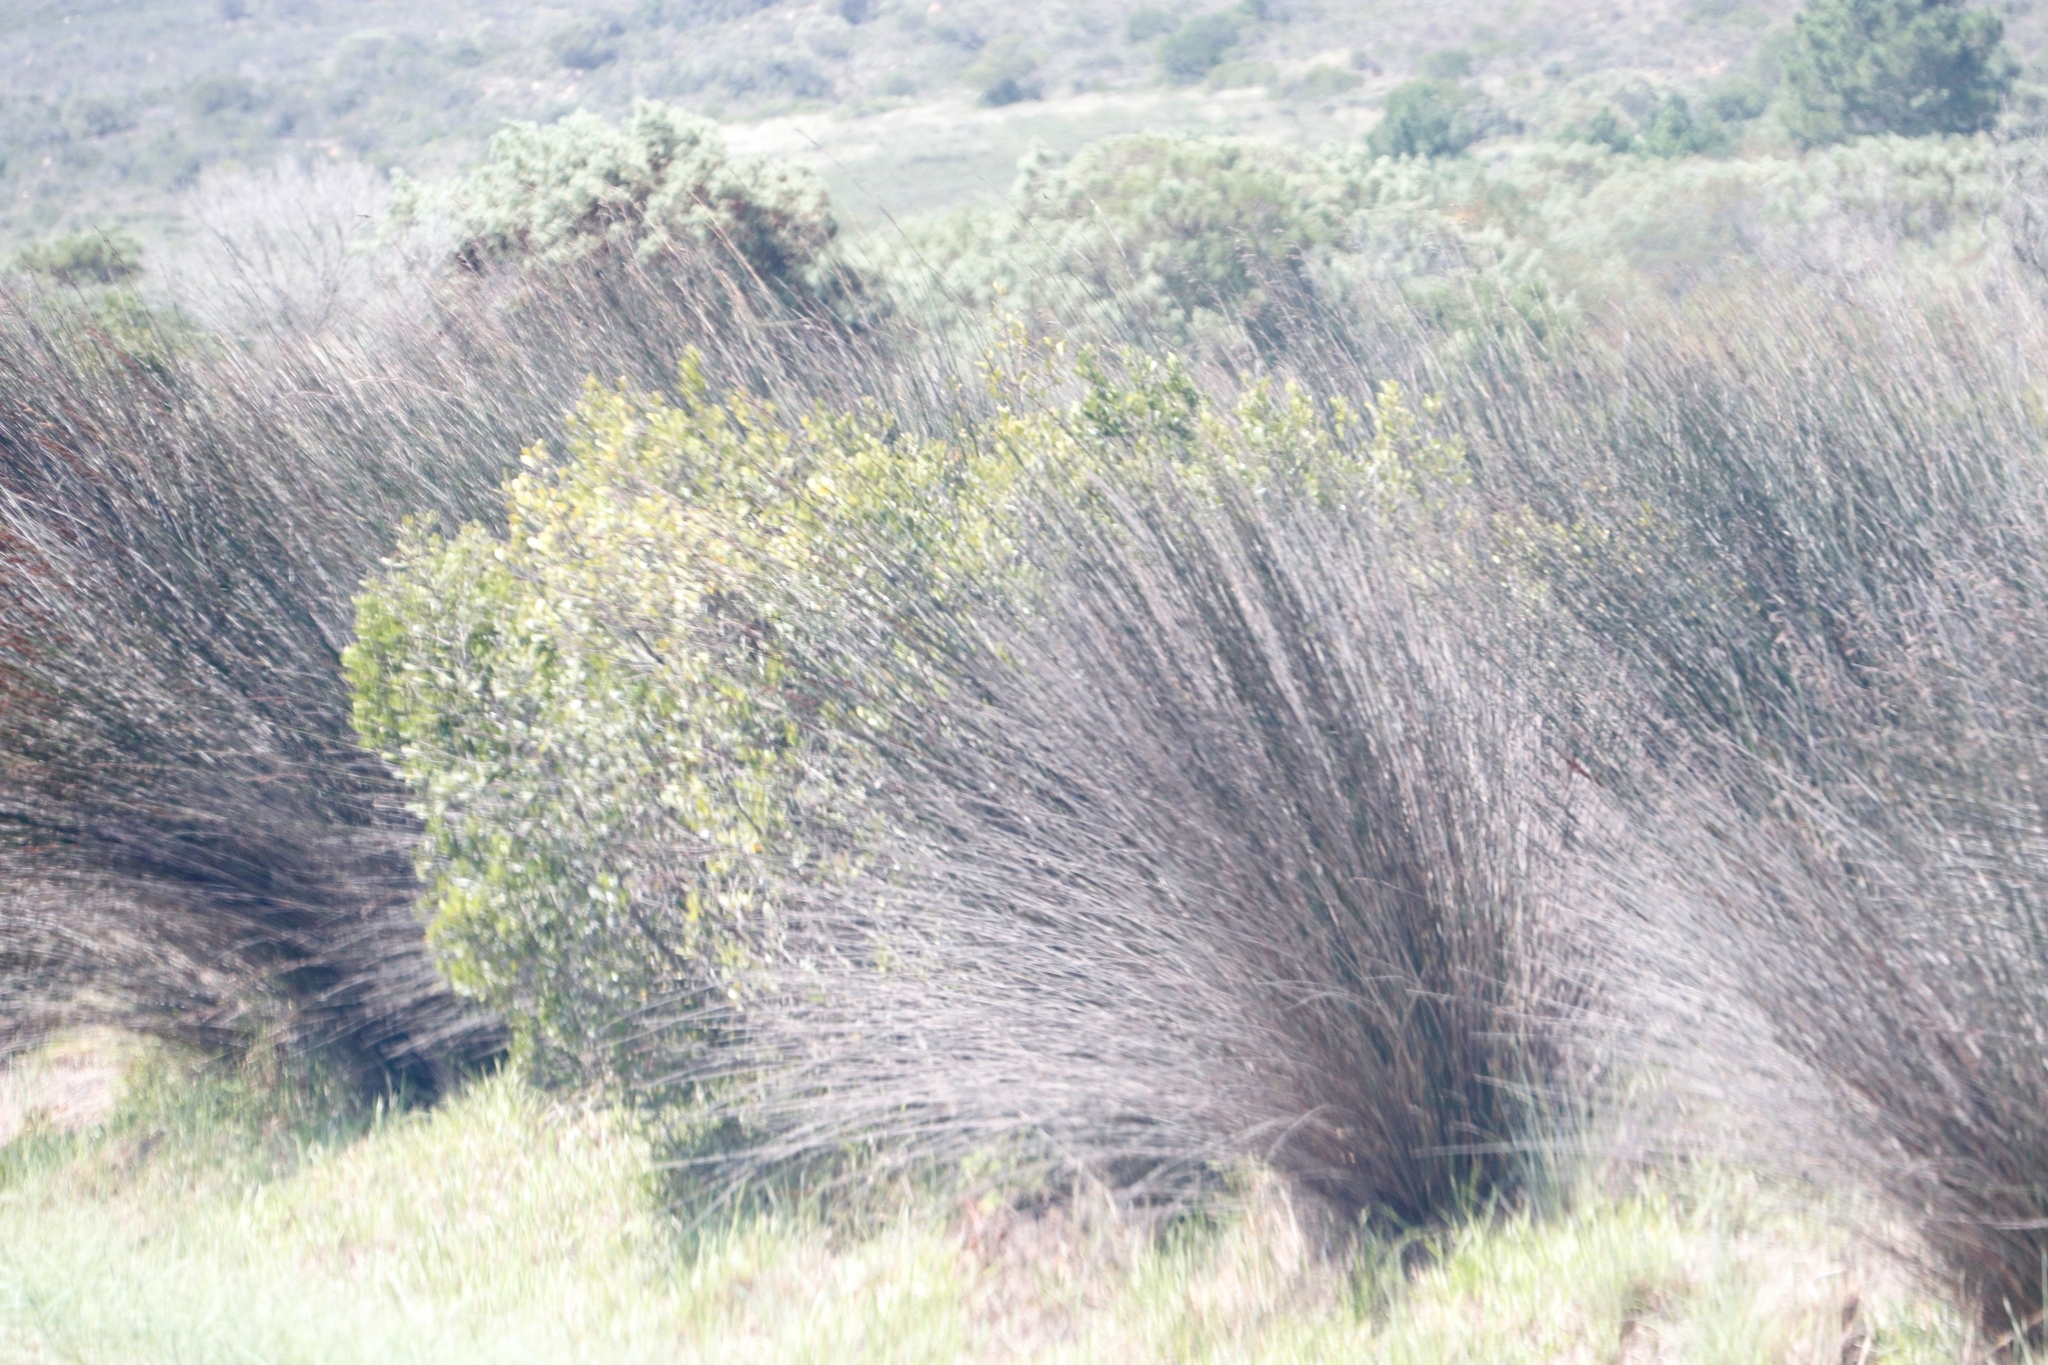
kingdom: Plantae
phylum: Tracheophyta
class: Liliopsida
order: Poales
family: Restionaceae
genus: Thamnochortus
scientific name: Thamnochortus insignis
